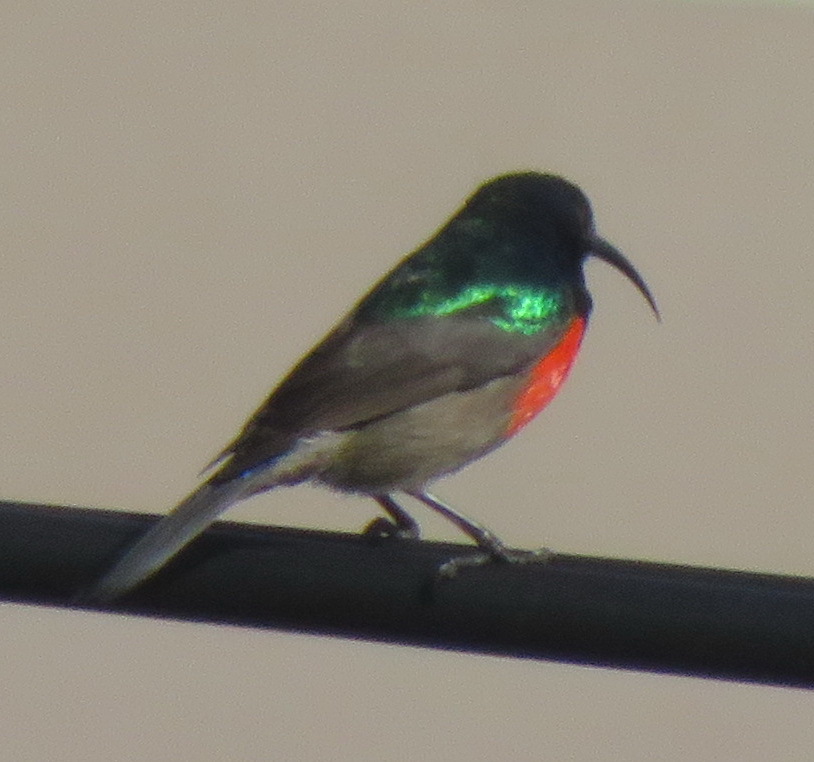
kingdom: Animalia
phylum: Chordata
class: Aves
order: Passeriformes
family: Nectariniidae
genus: Cinnyris
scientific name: Cinnyris afer
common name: Greater double-collared sunbird
